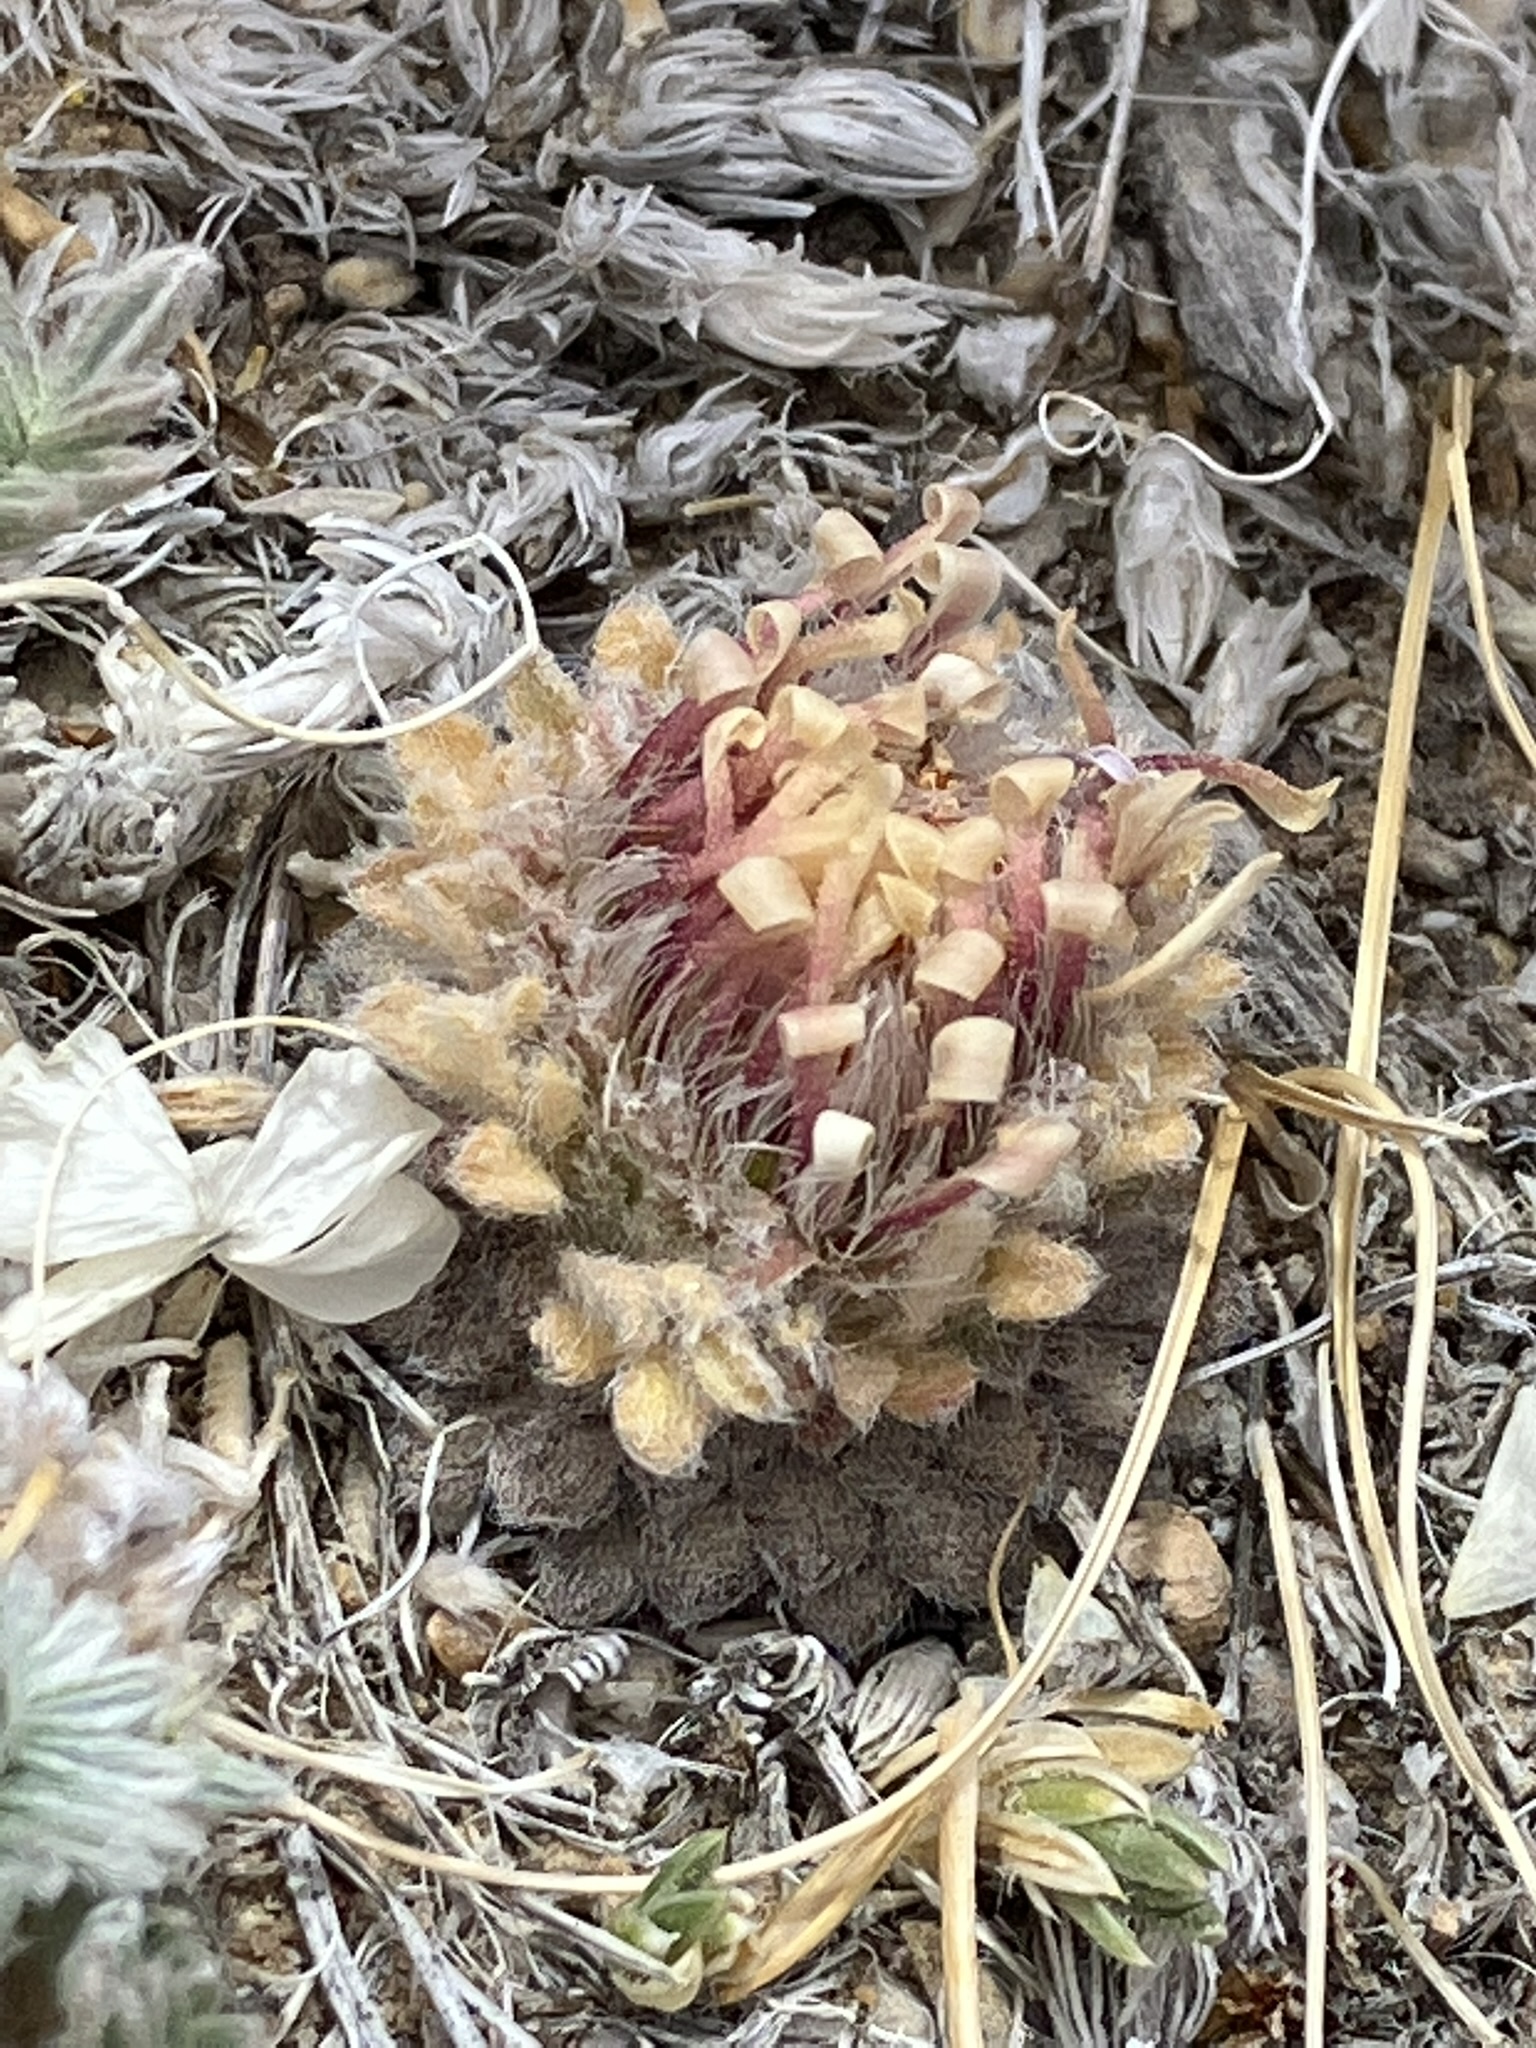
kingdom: Plantae
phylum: Tracheophyta
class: Magnoliopsida
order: Asterales
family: Asteraceae
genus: Townsendia
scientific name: Townsendia condensata
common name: Alpine townsend daisy
